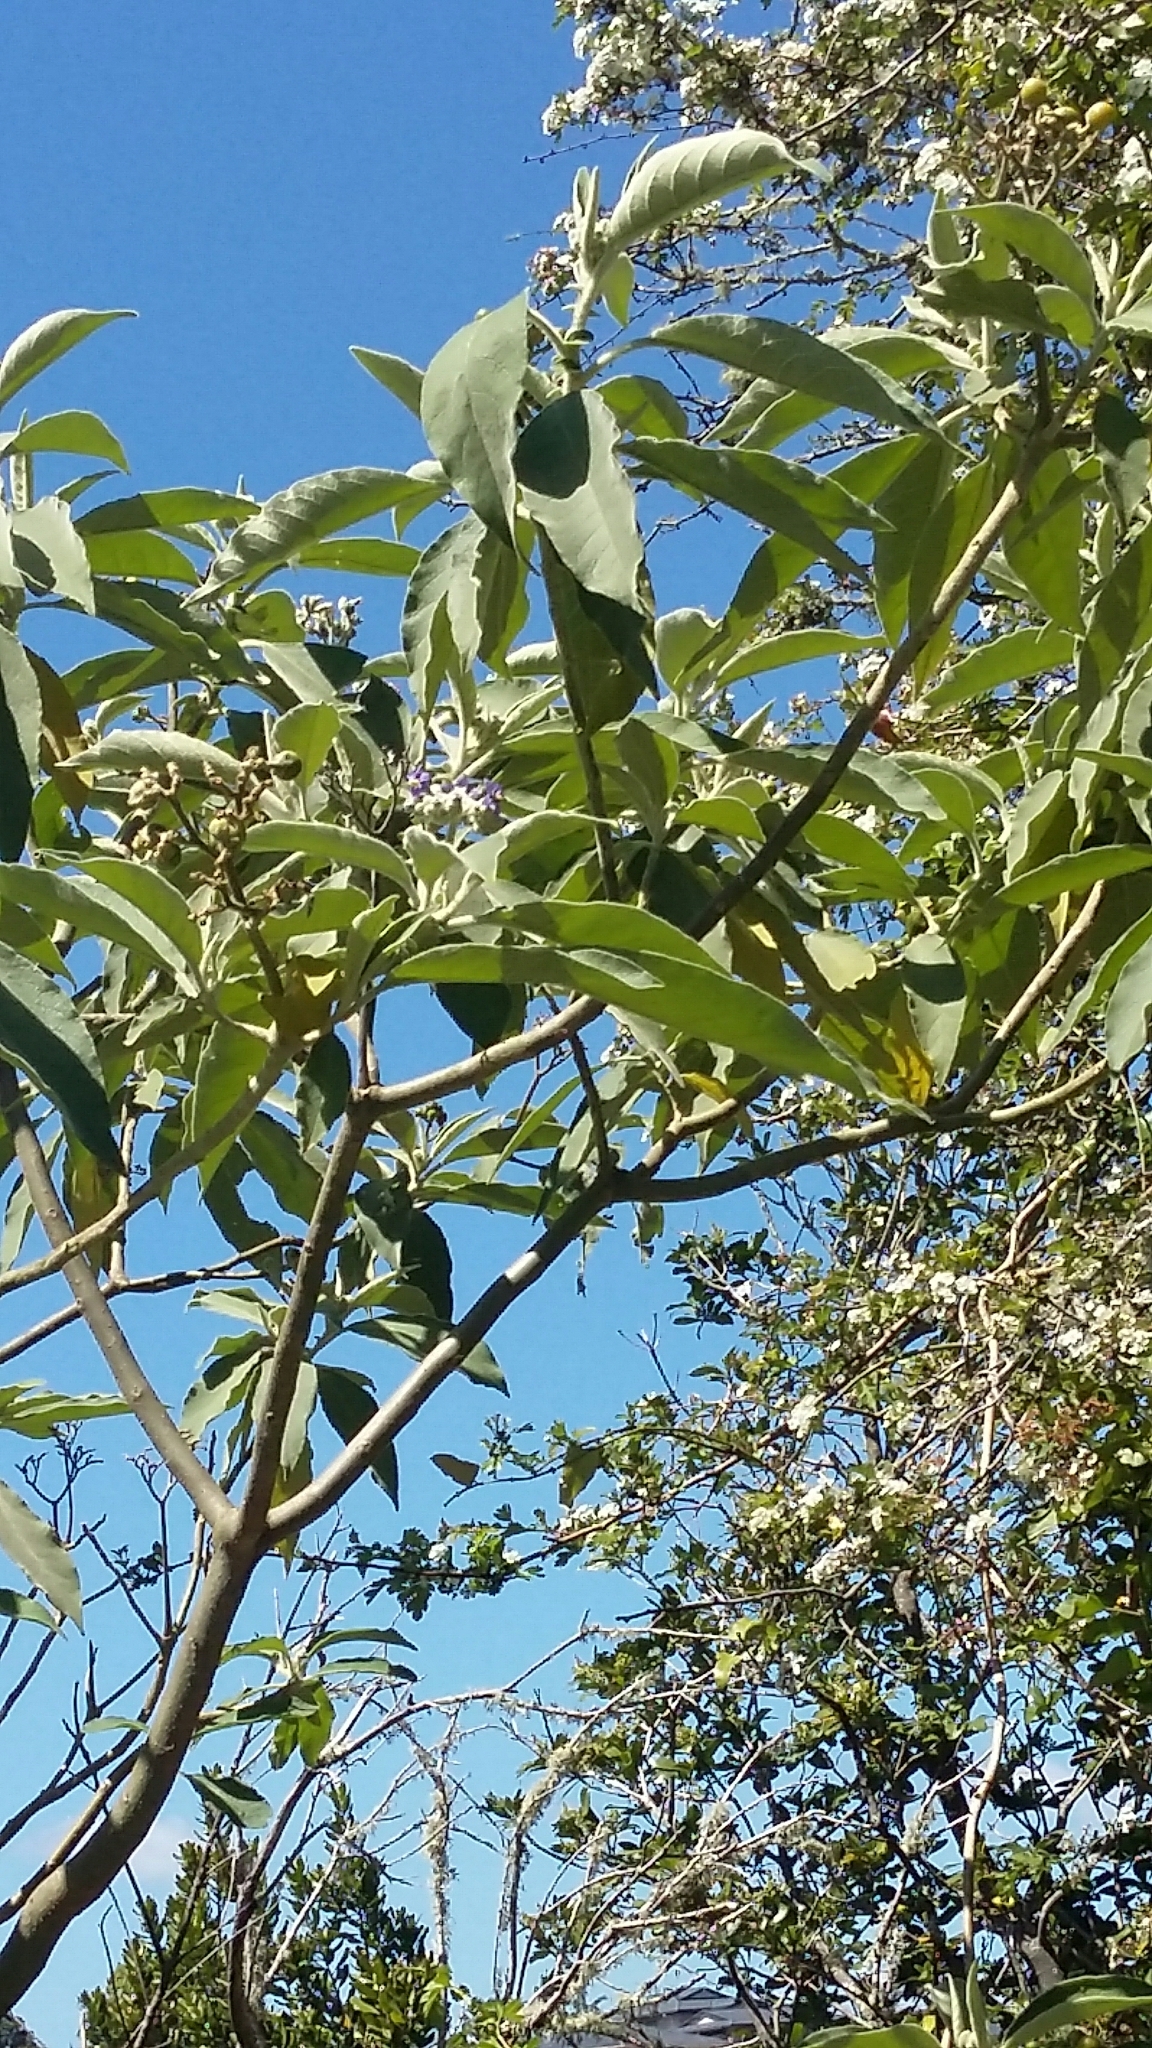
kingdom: Plantae
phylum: Tracheophyta
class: Magnoliopsida
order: Solanales
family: Solanaceae
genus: Solanum
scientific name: Solanum mauritianum
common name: Earleaf nightshade
